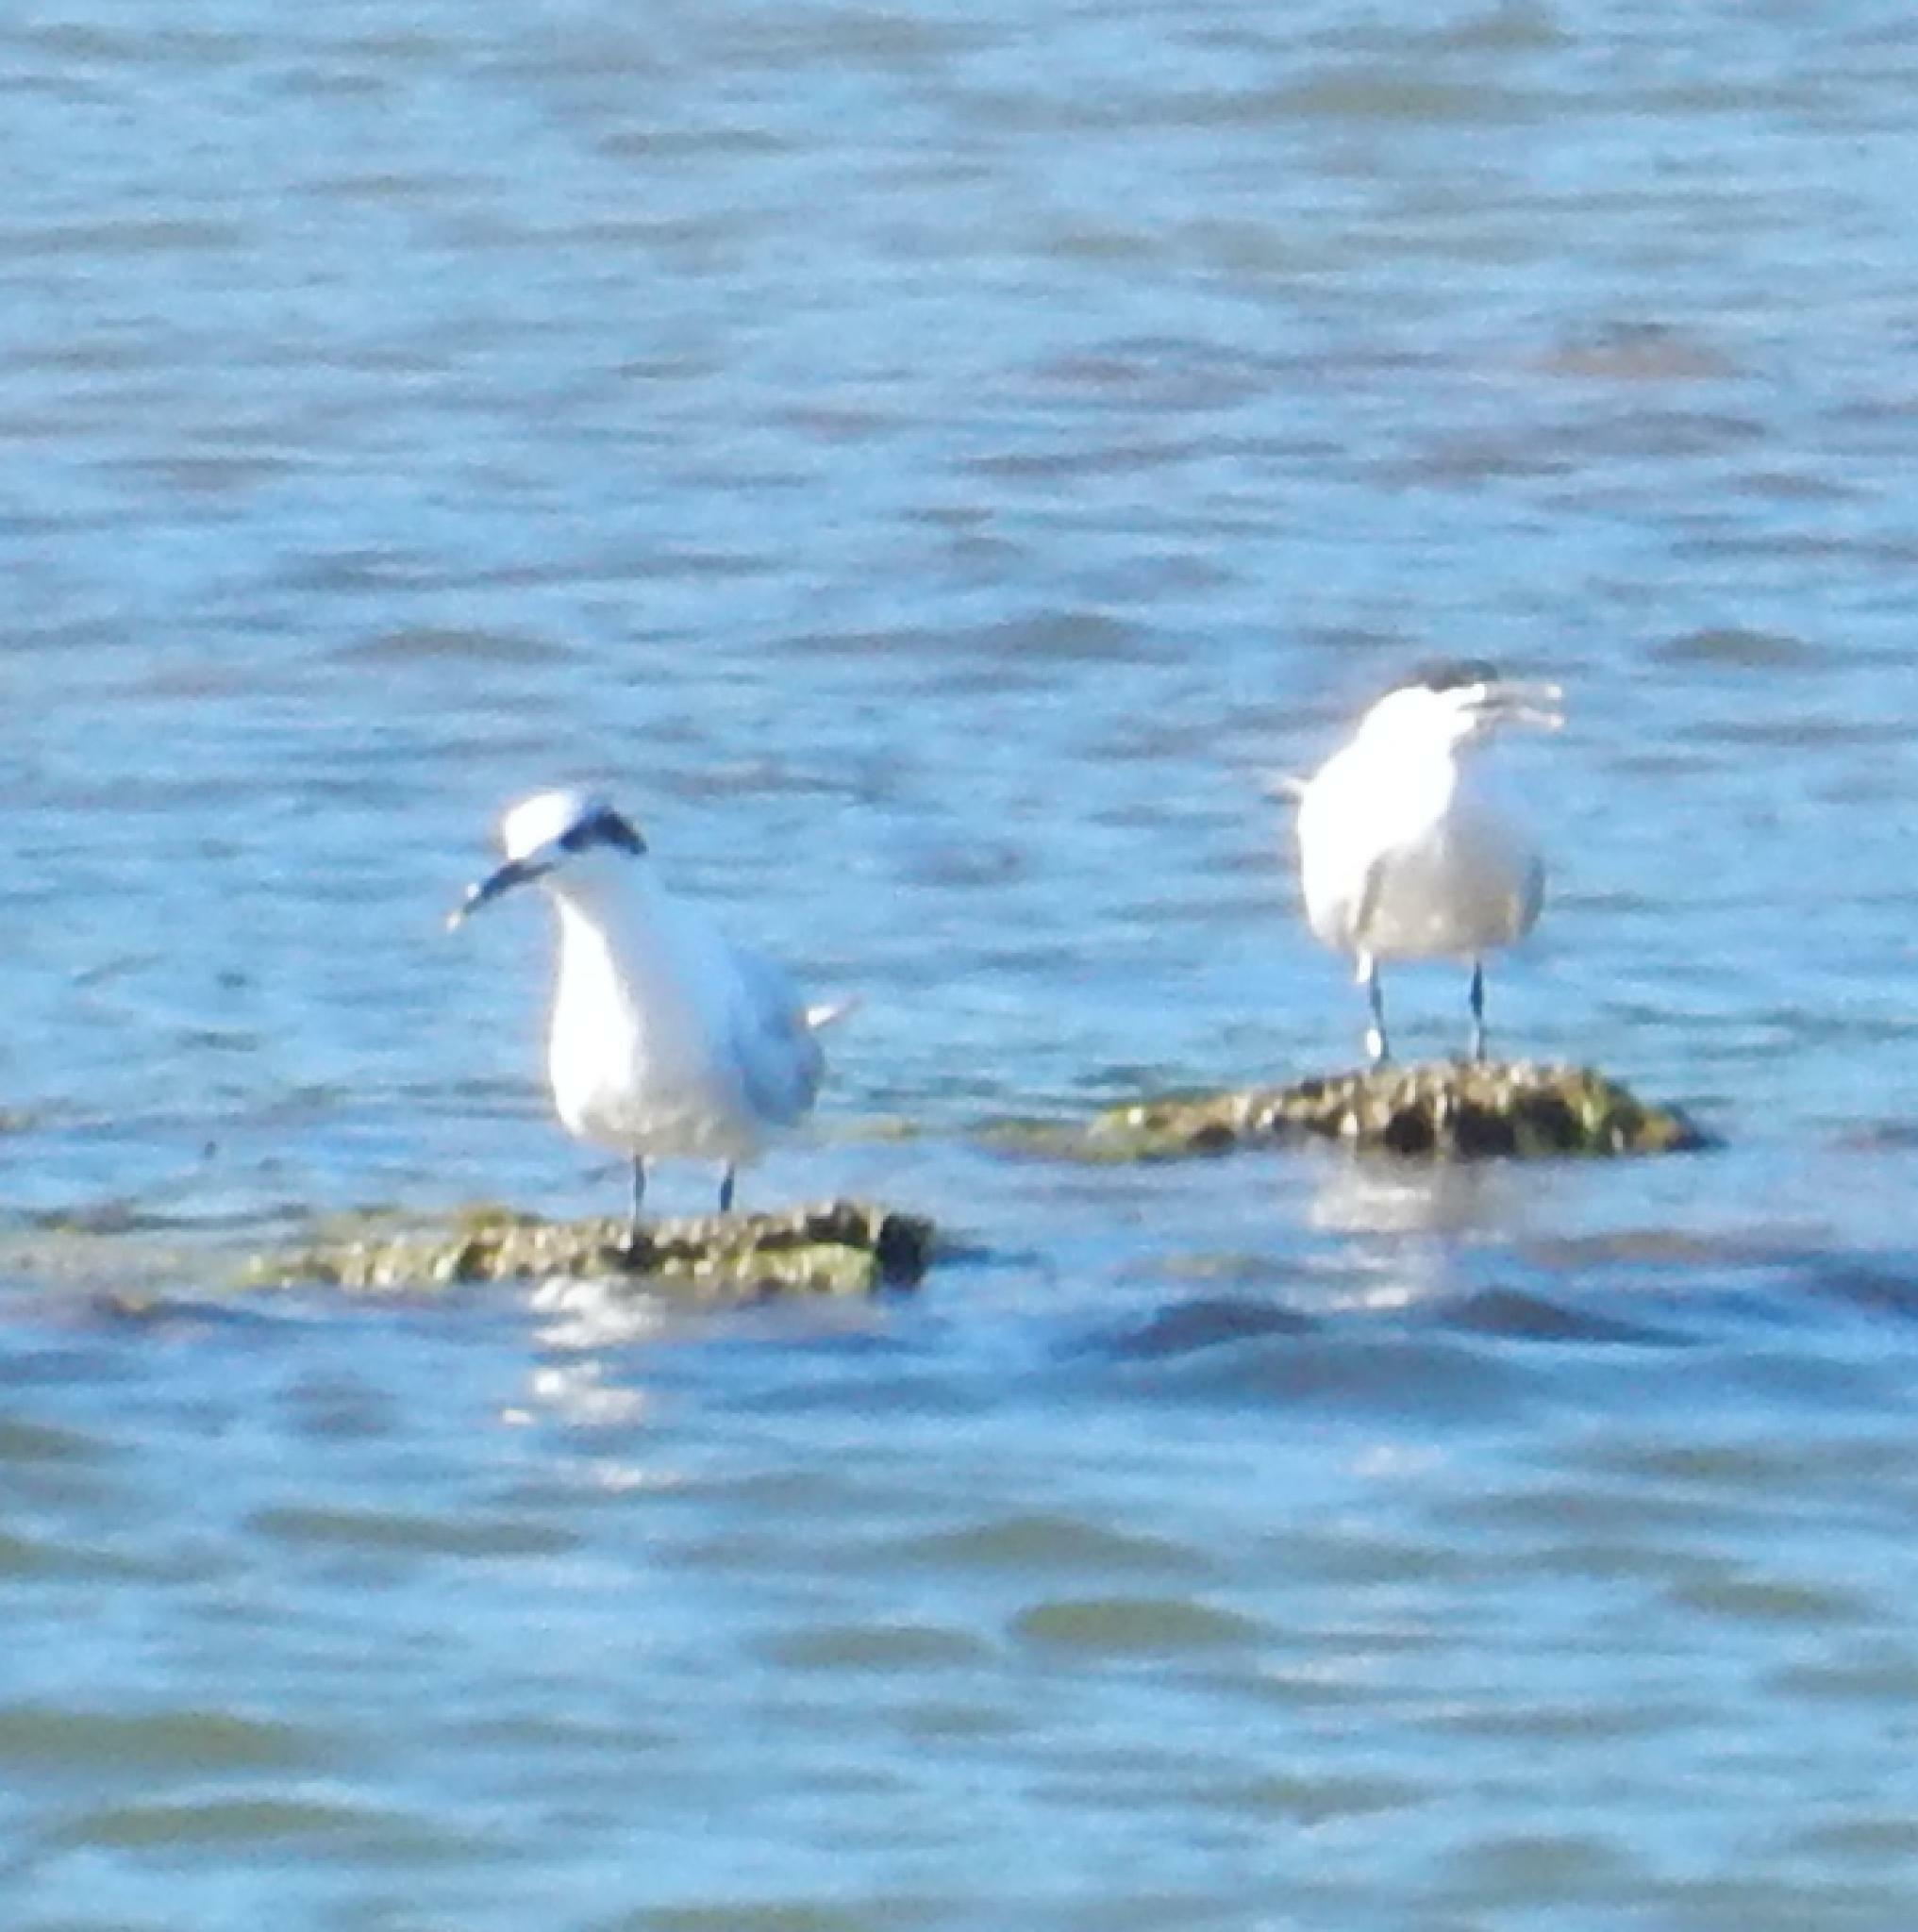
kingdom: Animalia
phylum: Chordata
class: Aves
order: Charadriiformes
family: Laridae
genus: Thalasseus
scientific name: Thalasseus sandvicensis
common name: Sandwich tern
